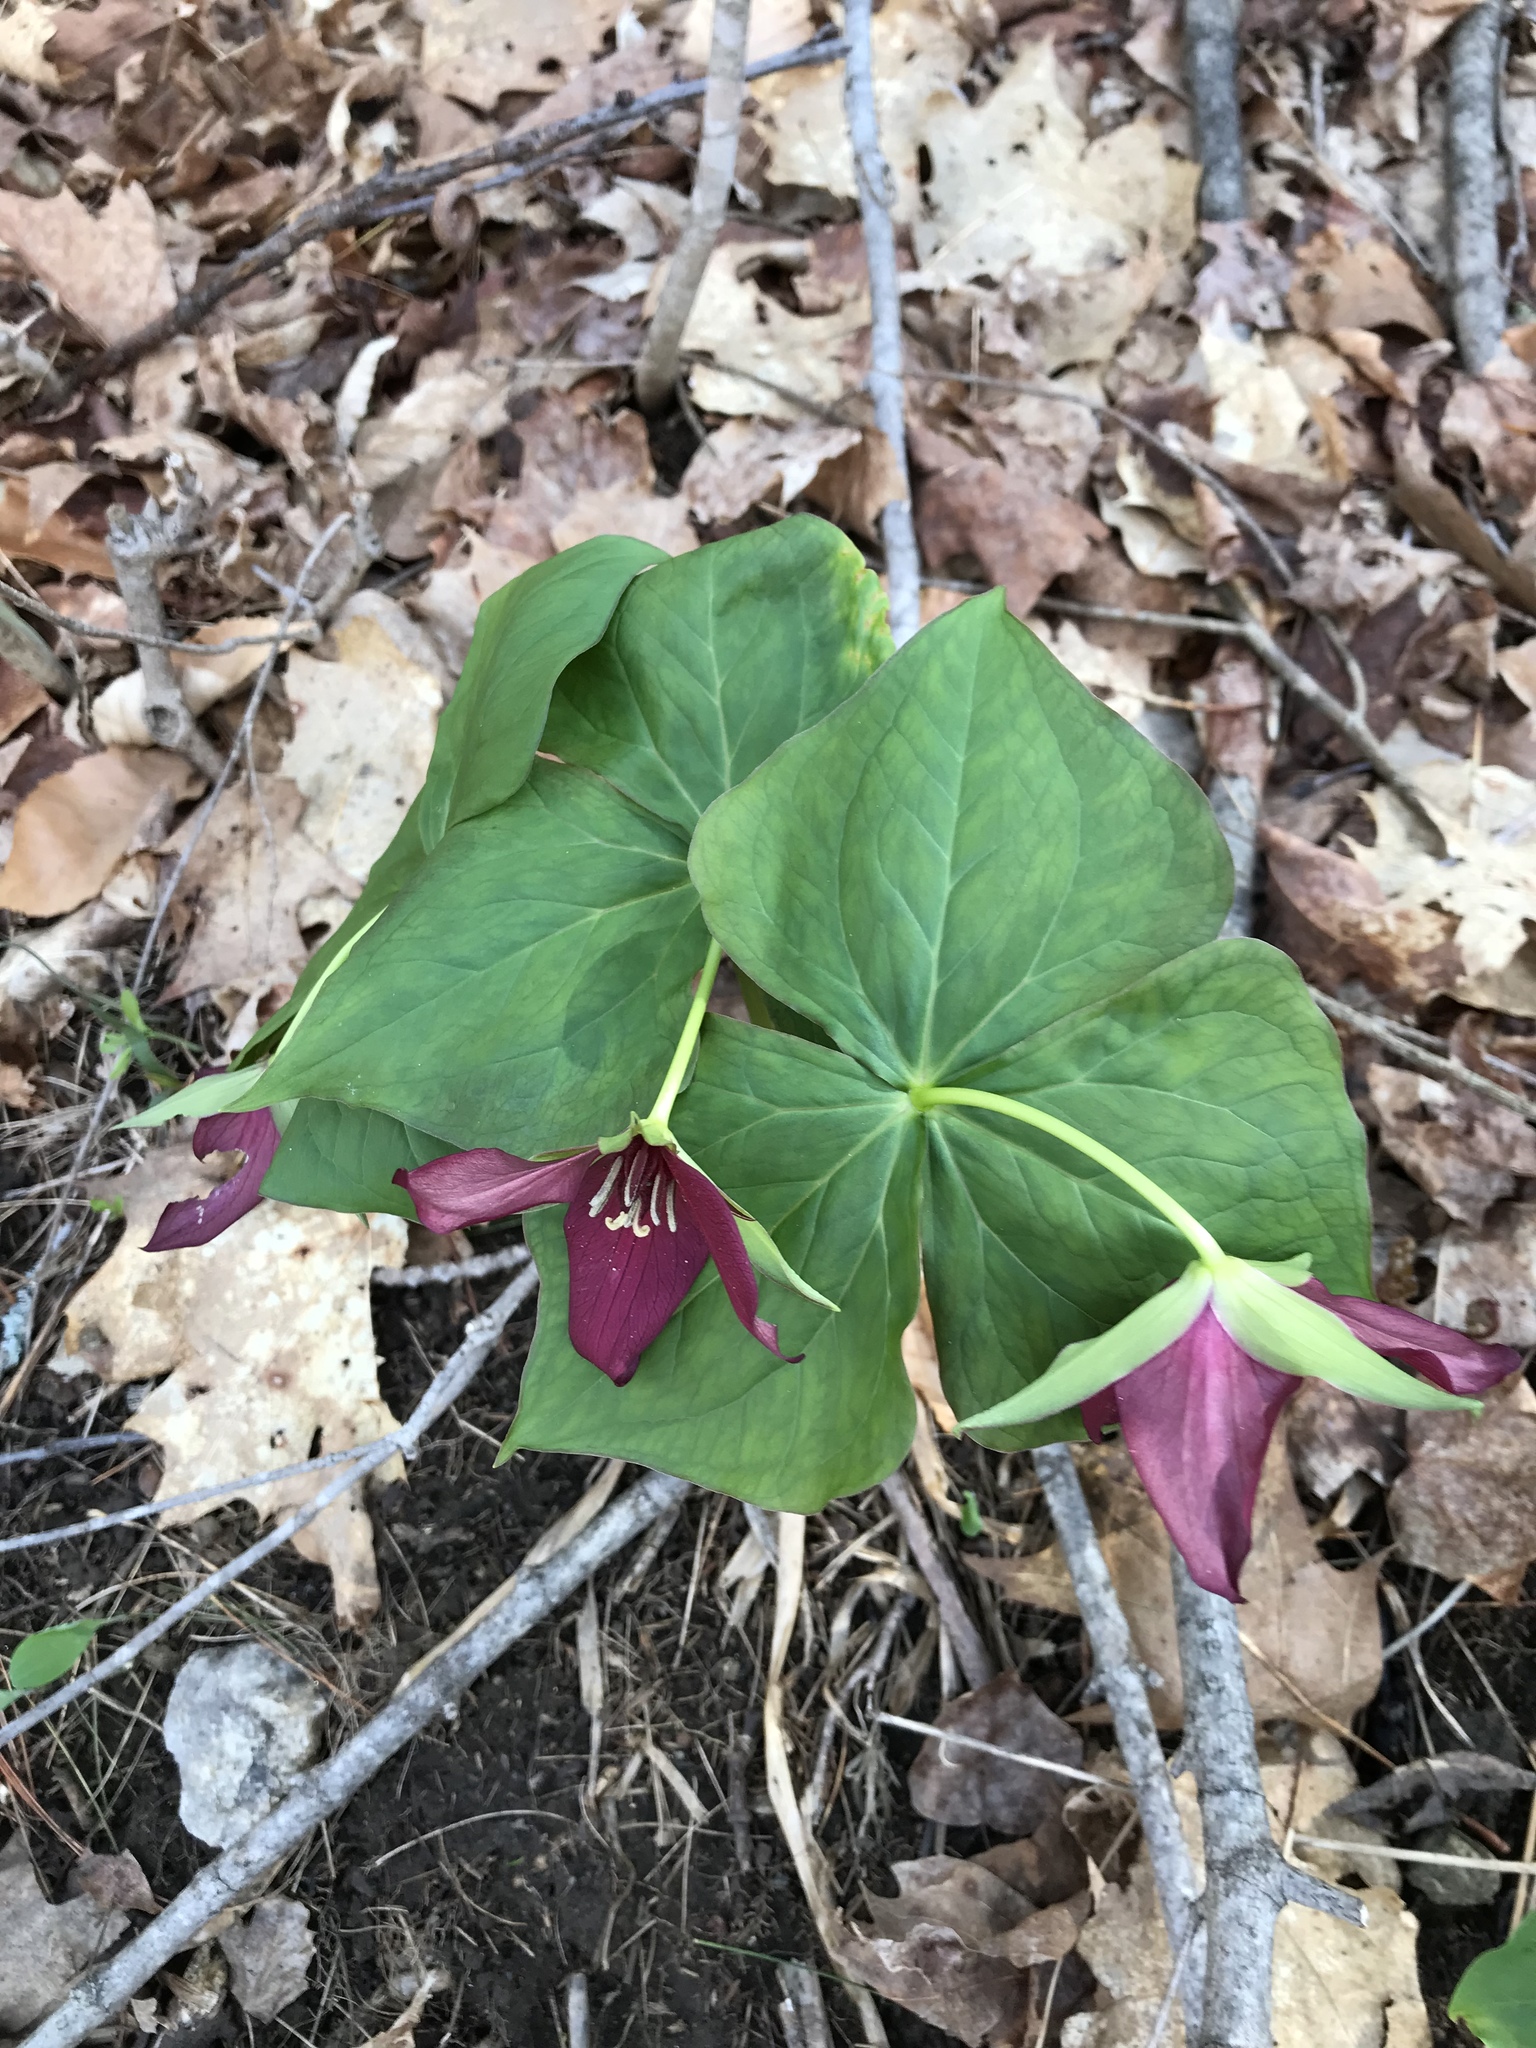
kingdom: Plantae
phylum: Tracheophyta
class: Liliopsida
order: Liliales
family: Melanthiaceae
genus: Trillium
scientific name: Trillium erectum
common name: Purple trillium
